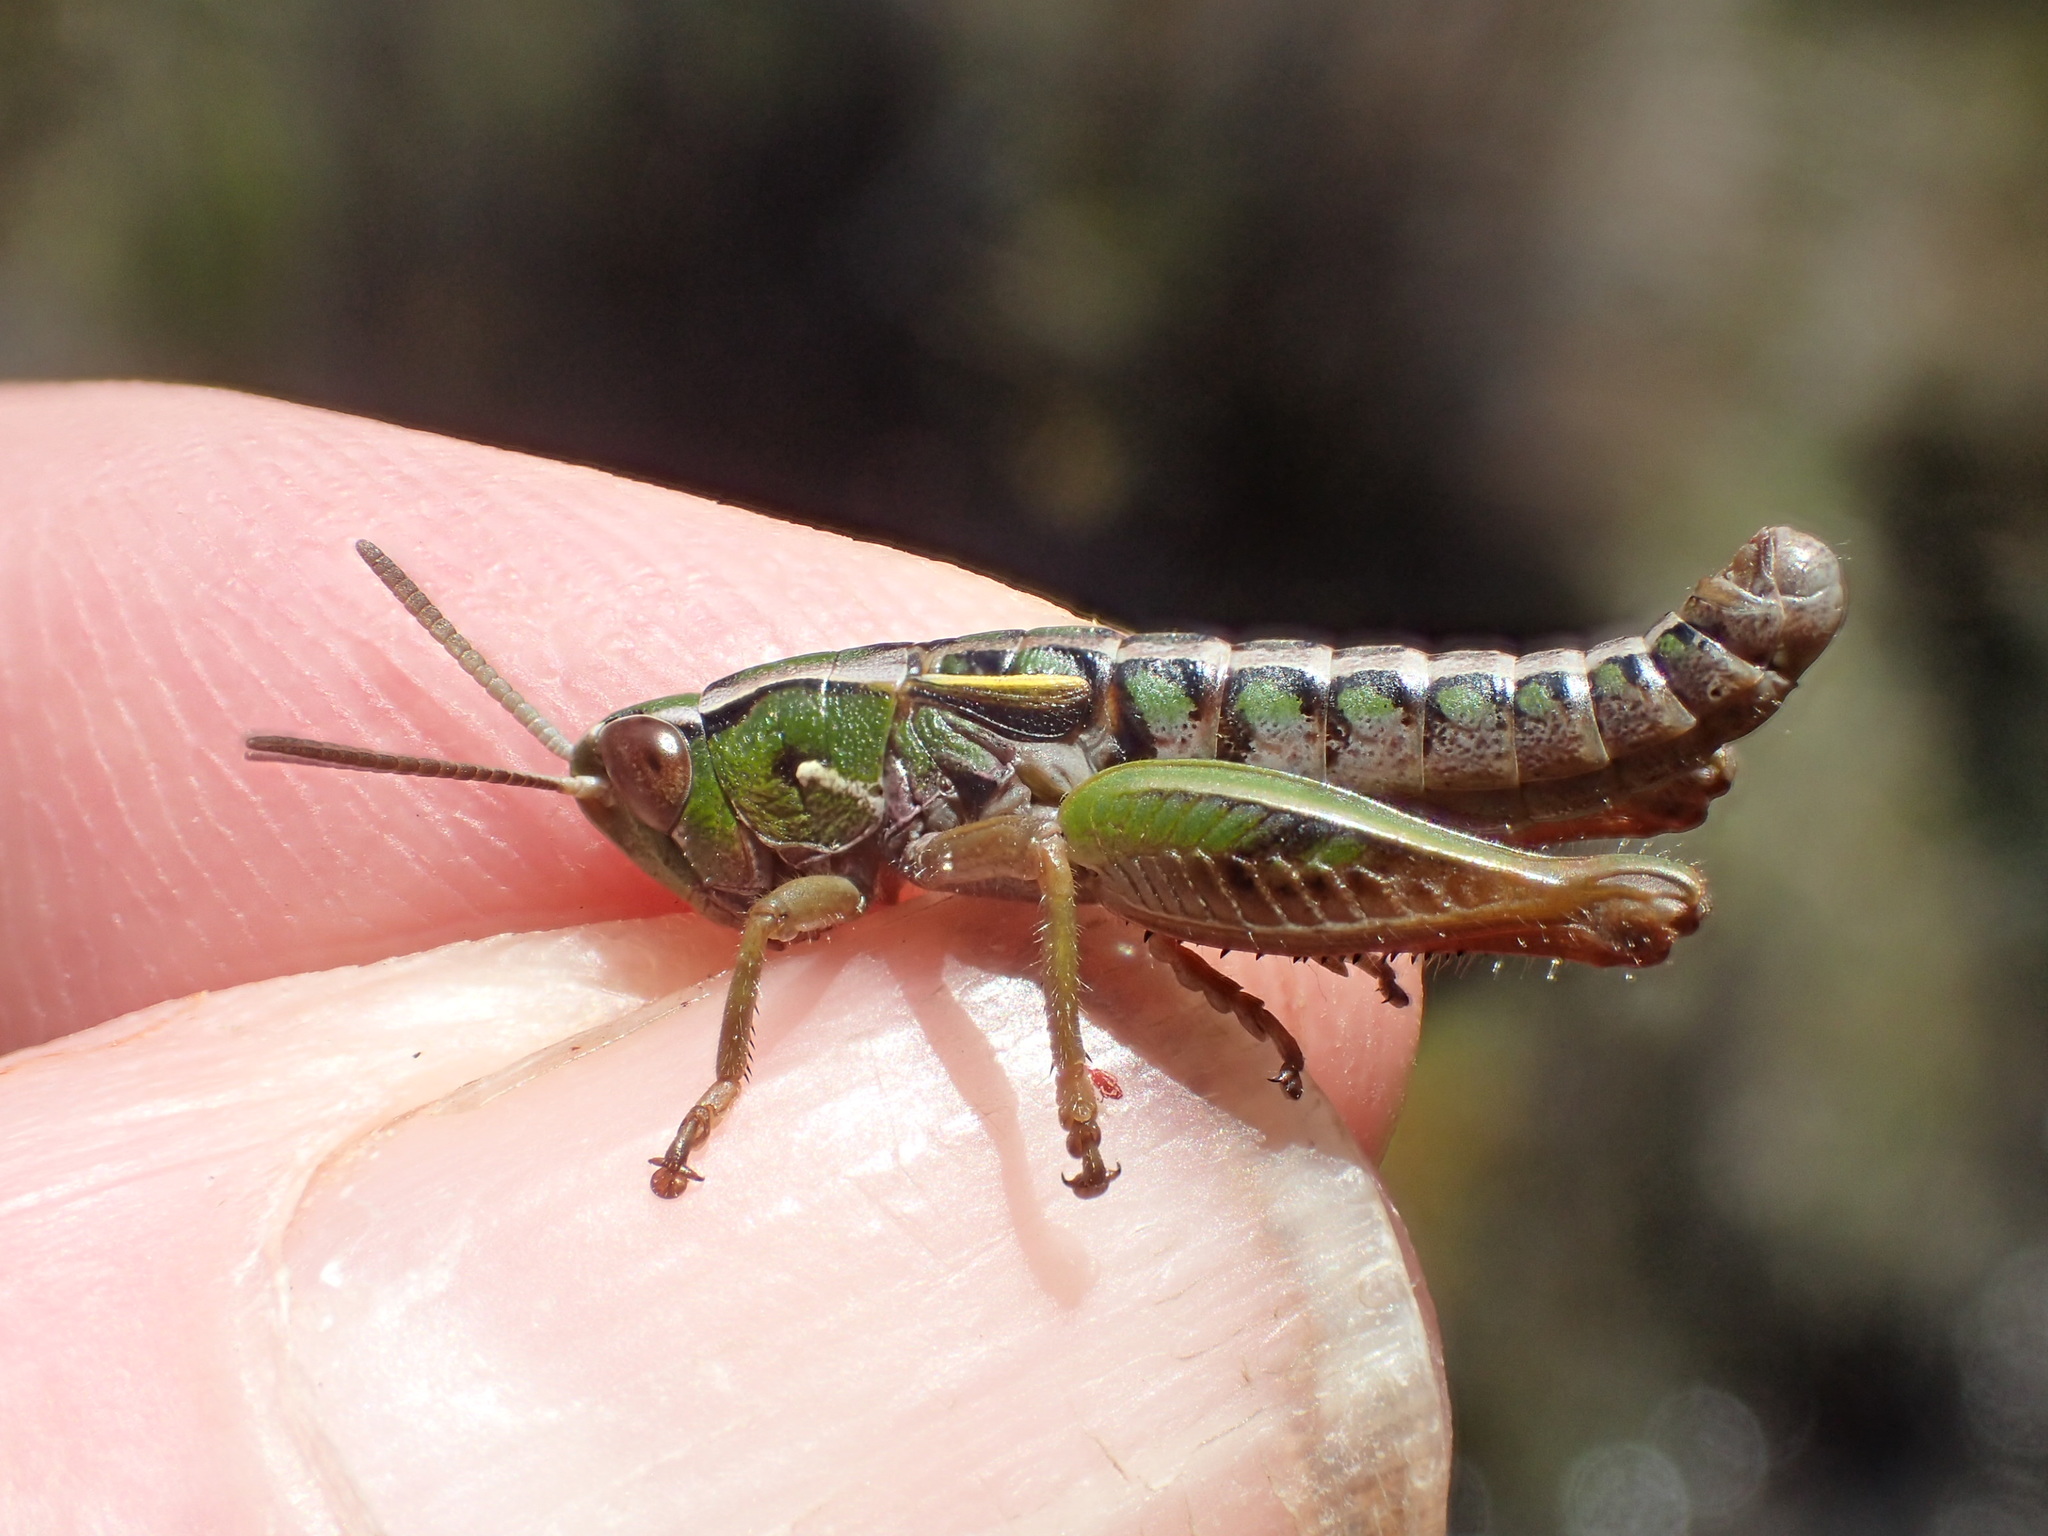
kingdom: Animalia
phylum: Arthropoda
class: Insecta
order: Orthoptera
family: Acrididae
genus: Russalpia
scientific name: Russalpia albertisi
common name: Tassie hopper
